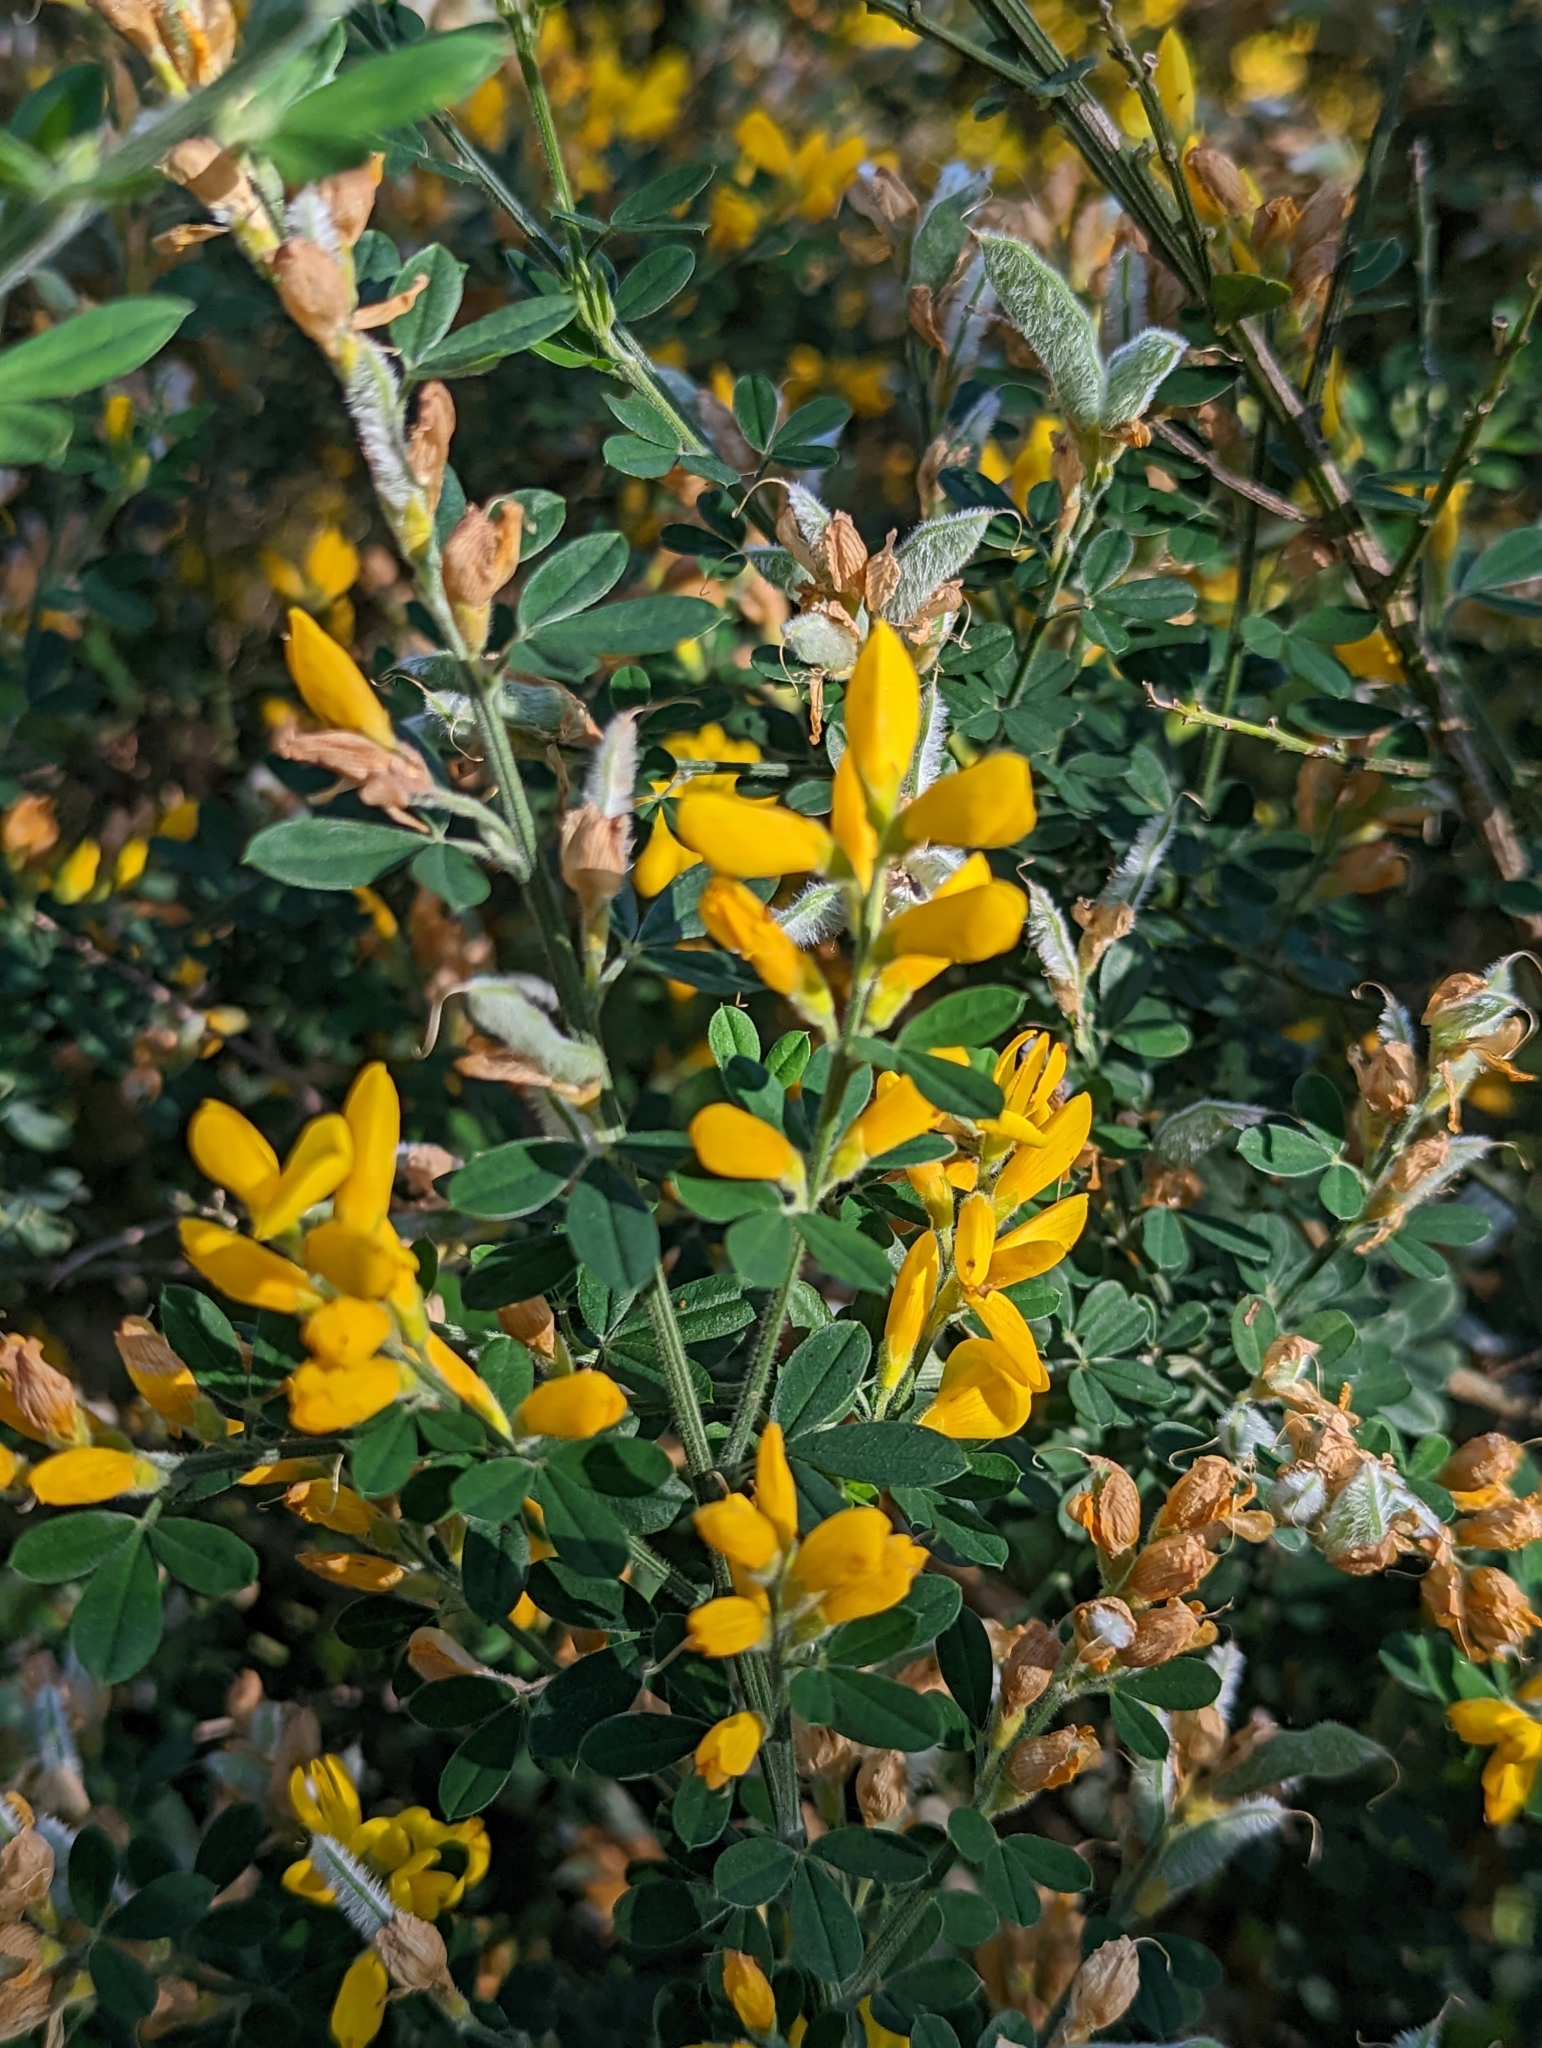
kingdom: Plantae
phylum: Tracheophyta
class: Magnoliopsida
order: Fabales
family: Fabaceae
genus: Genista
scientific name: Genista monspessulana
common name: Montpellier broom
